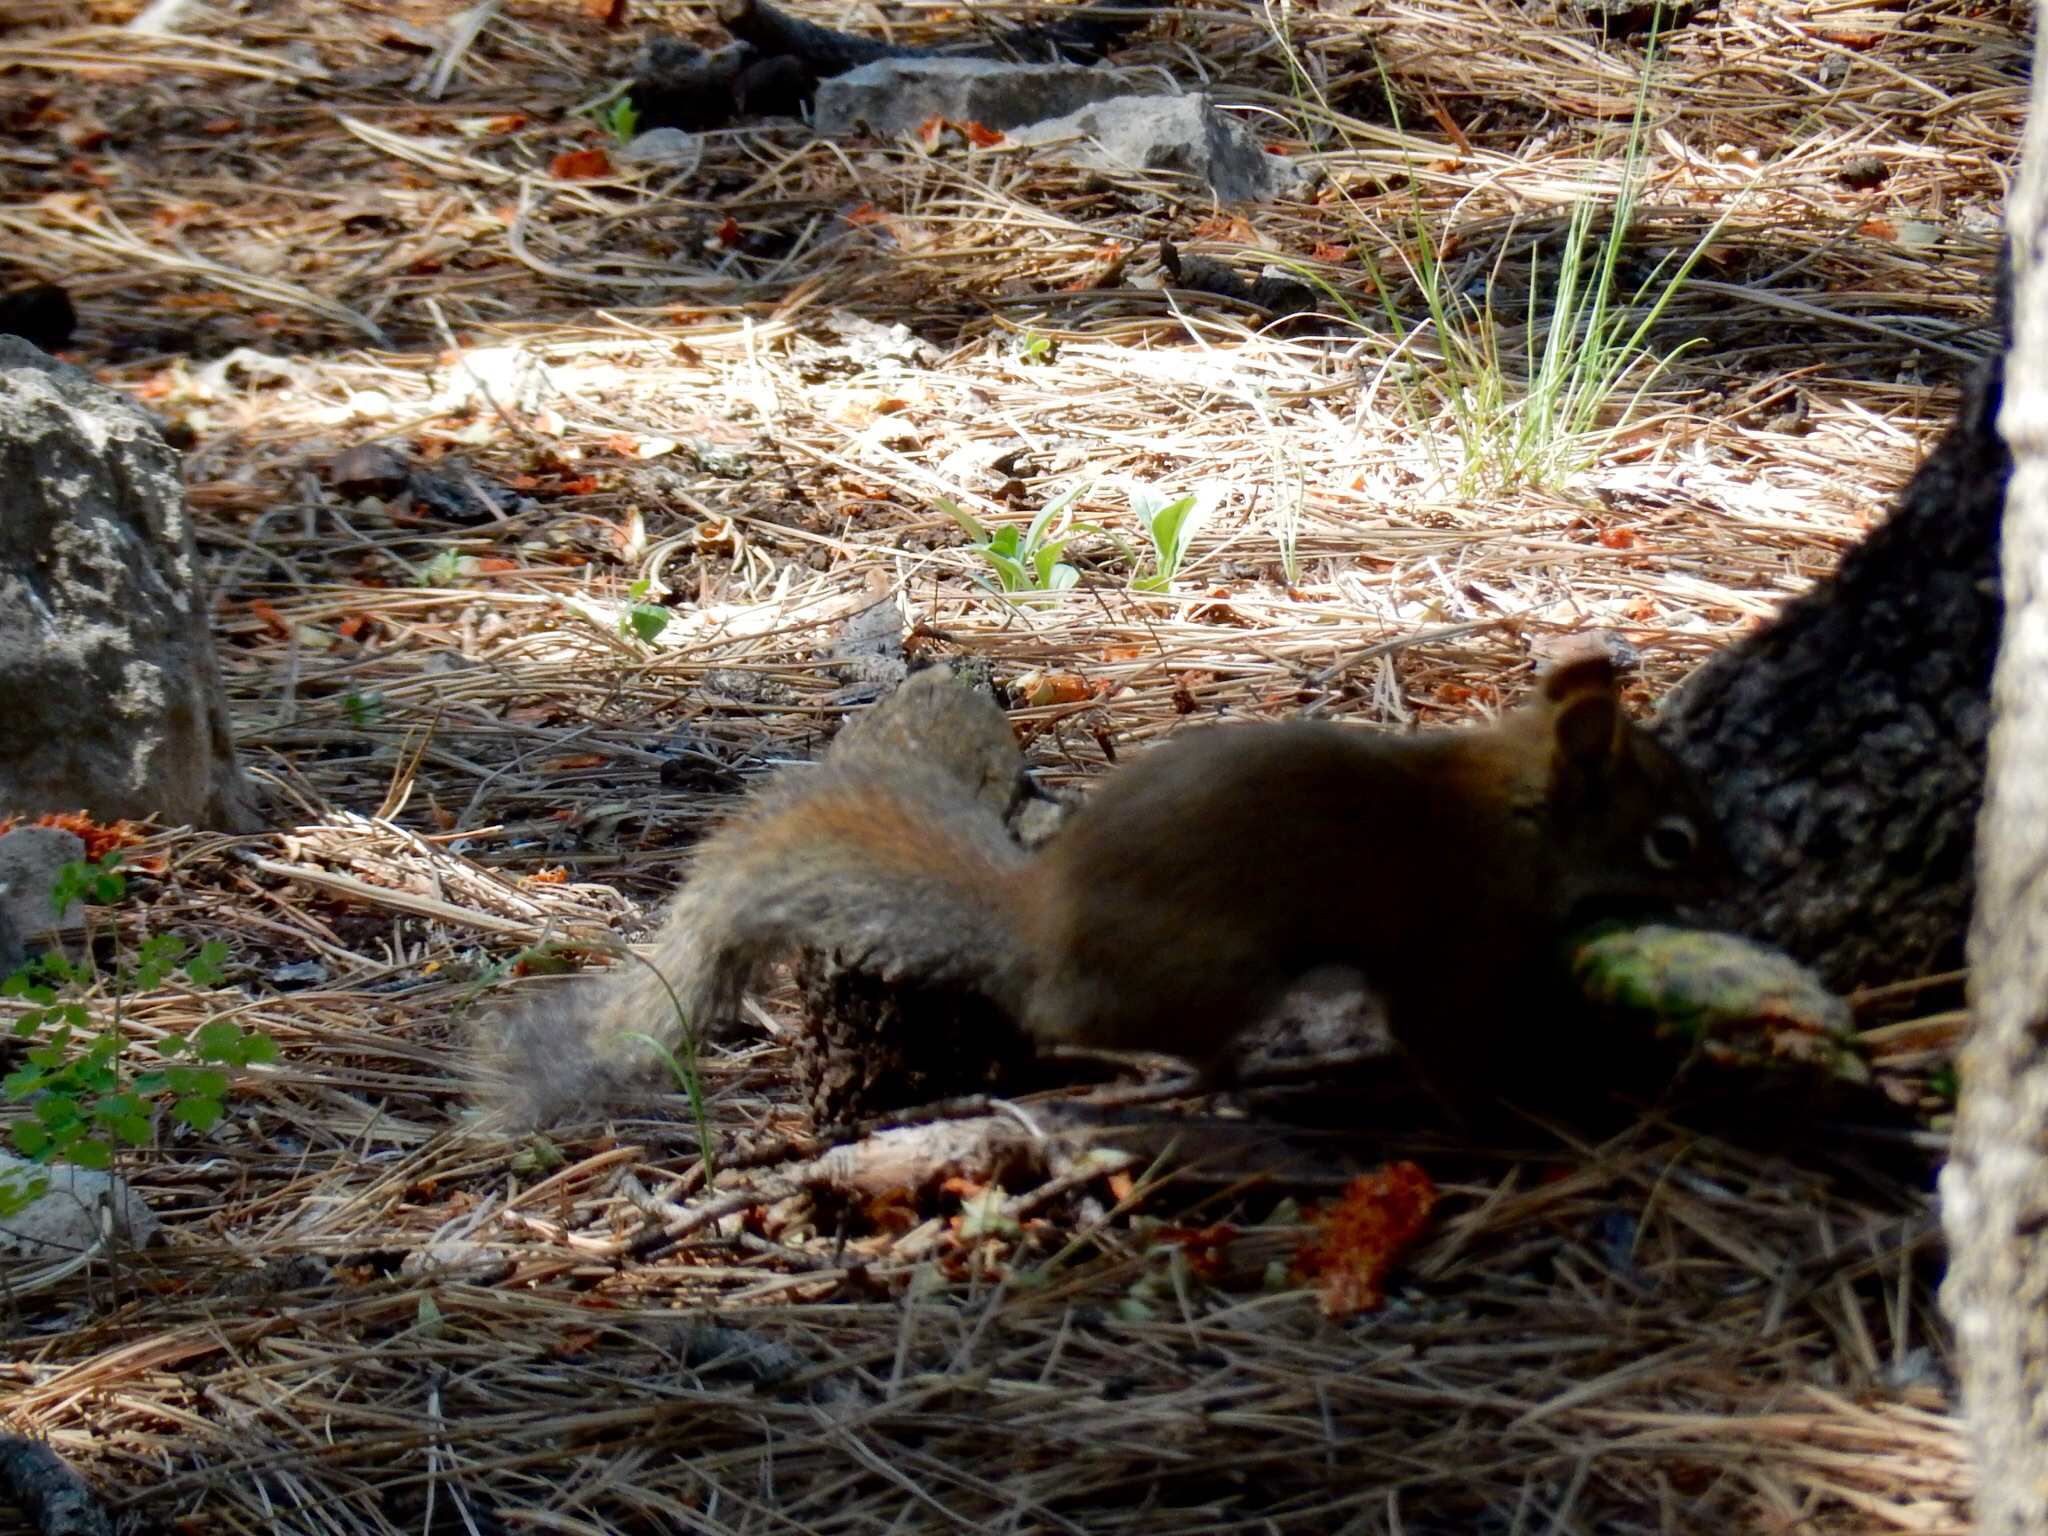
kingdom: Animalia
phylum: Chordata
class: Mammalia
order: Rodentia
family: Sciuridae
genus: Tamiasciurus
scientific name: Tamiasciurus hudsonicus
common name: Red squirrel
